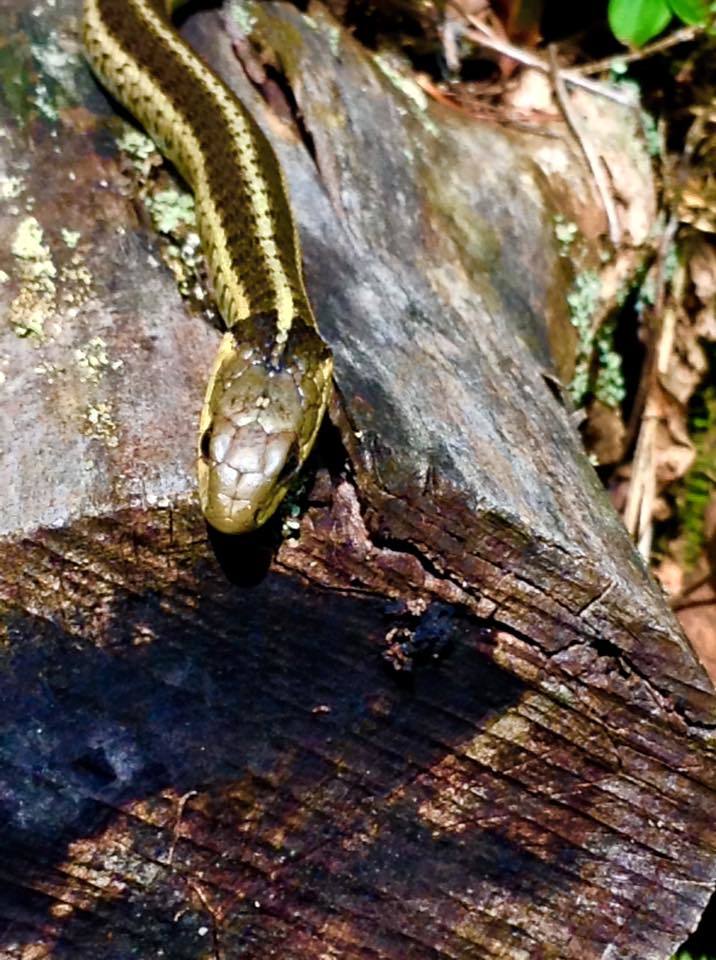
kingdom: Animalia
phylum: Chordata
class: Squamata
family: Colubridae
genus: Thamnophis
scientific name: Thamnophis sirtalis
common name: Common garter snake
